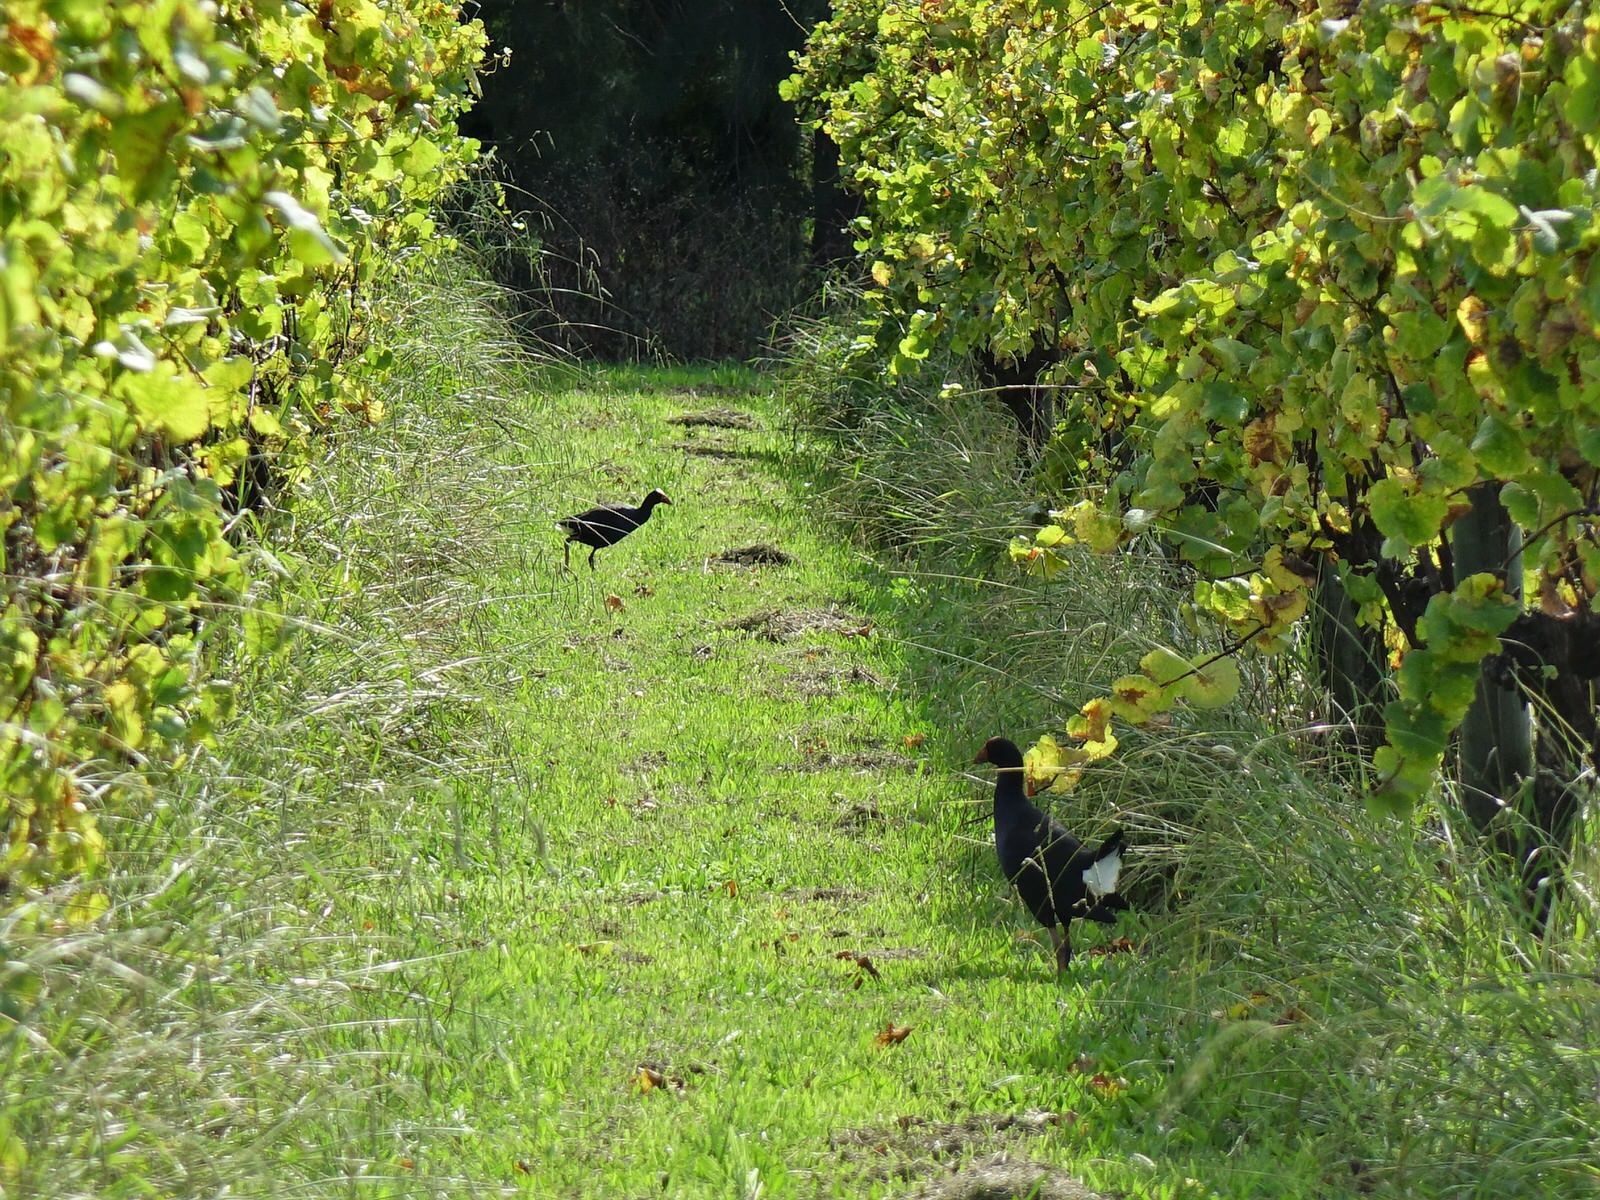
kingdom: Animalia
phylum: Chordata
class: Aves
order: Gruiformes
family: Rallidae
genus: Porphyrio
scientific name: Porphyrio melanotus
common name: Australasian swamphen
